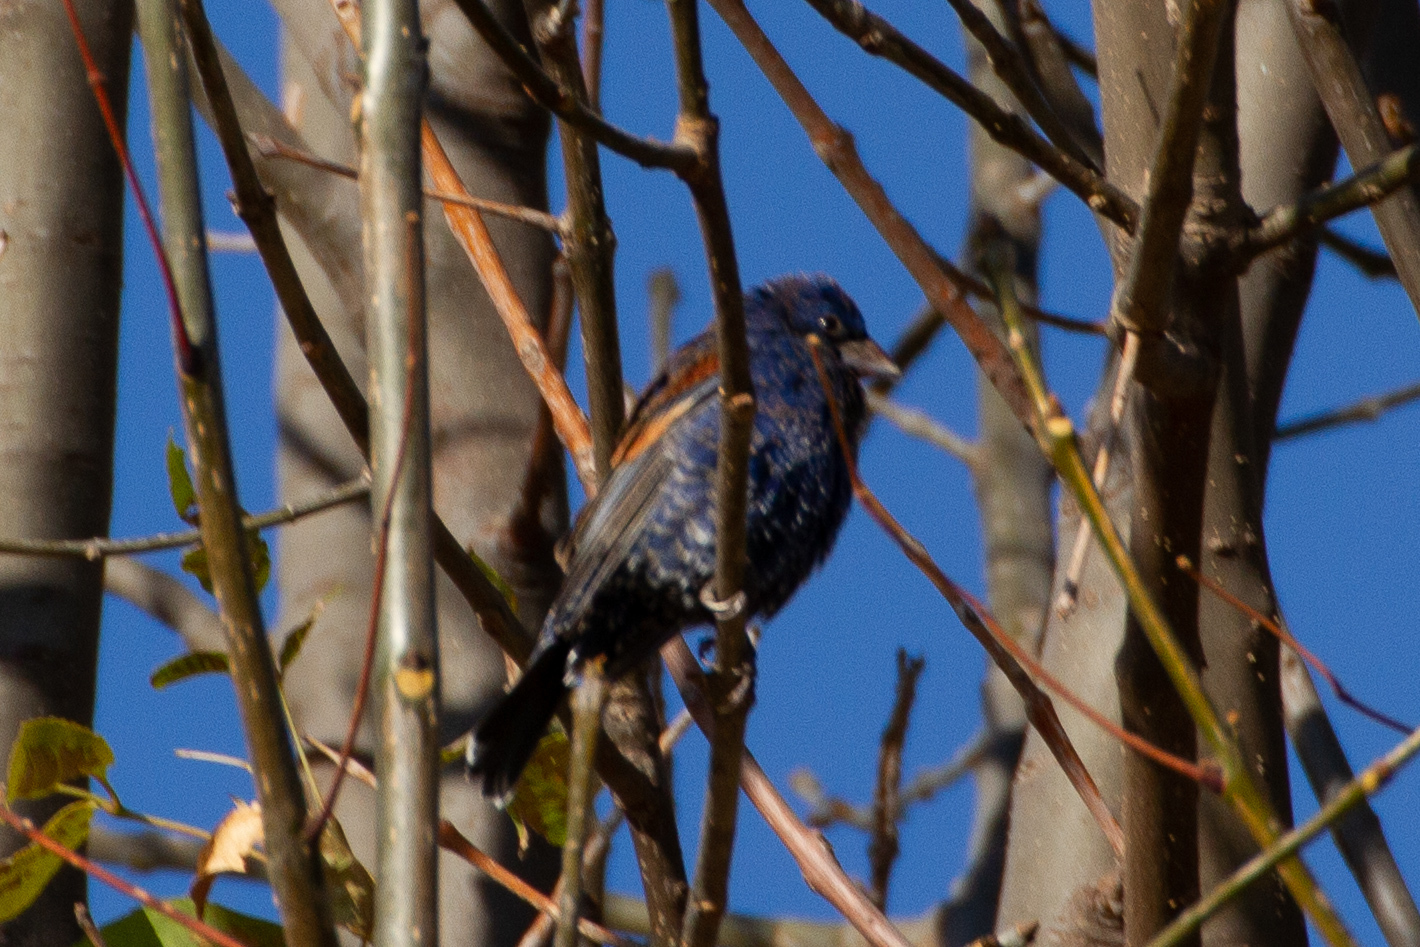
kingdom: Animalia
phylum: Chordata
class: Aves
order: Passeriformes
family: Cardinalidae
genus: Passerina
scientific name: Passerina caerulea
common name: Blue grosbeak
